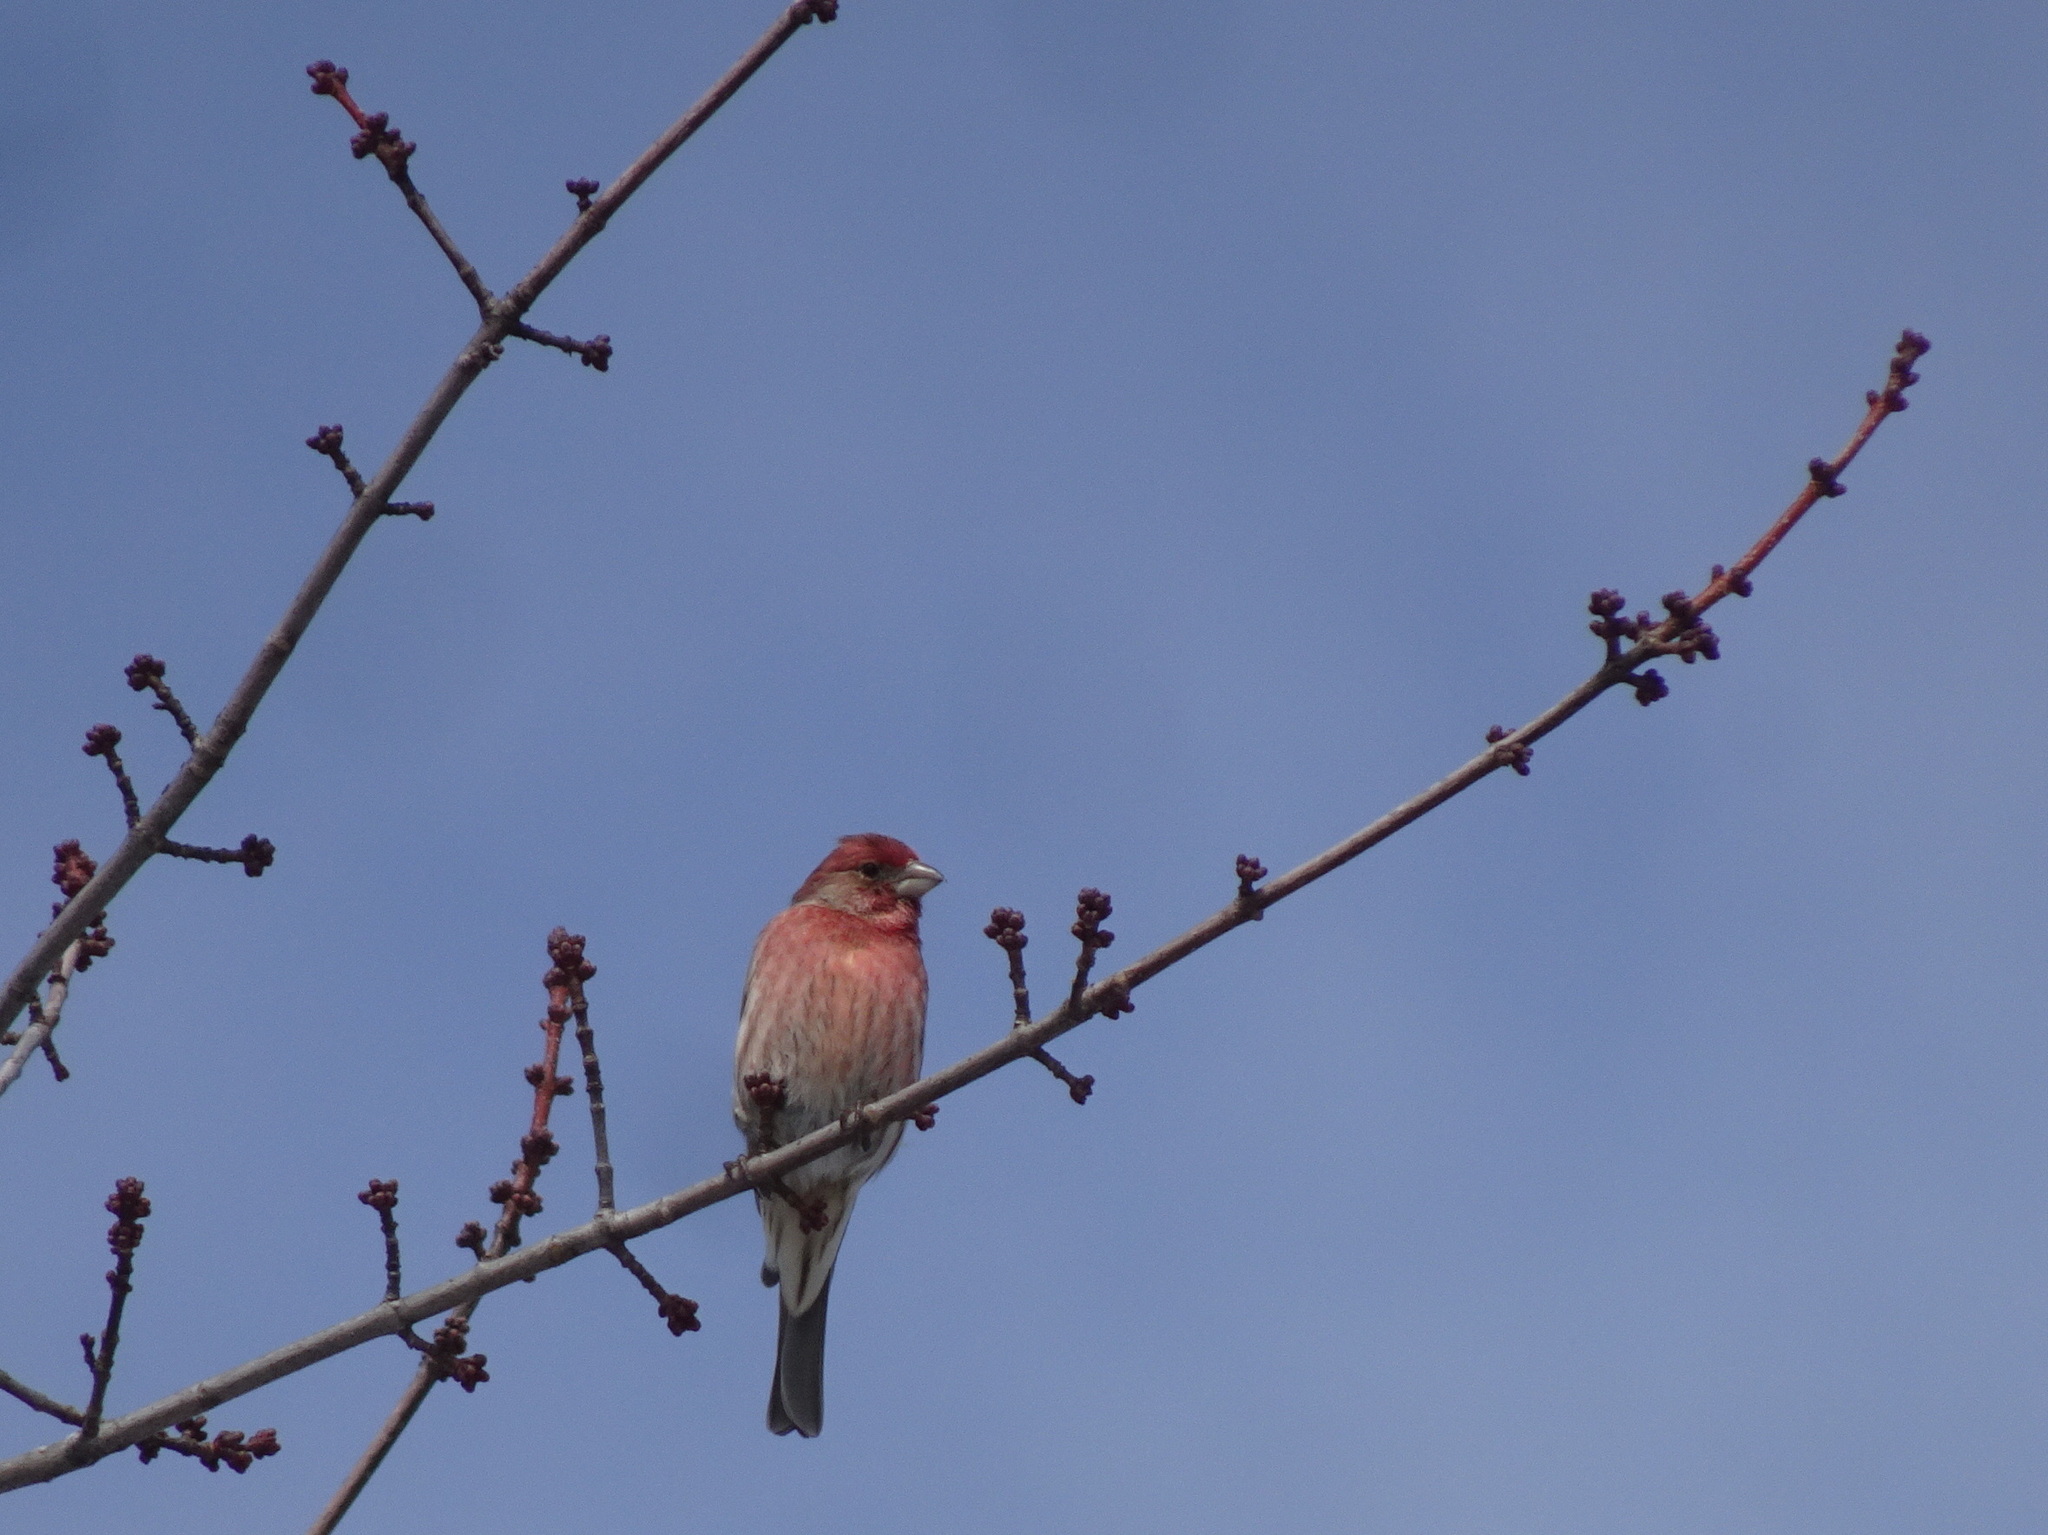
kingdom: Animalia
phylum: Chordata
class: Aves
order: Passeriformes
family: Fringillidae
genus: Haemorhous
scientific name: Haemorhous mexicanus
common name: House finch
